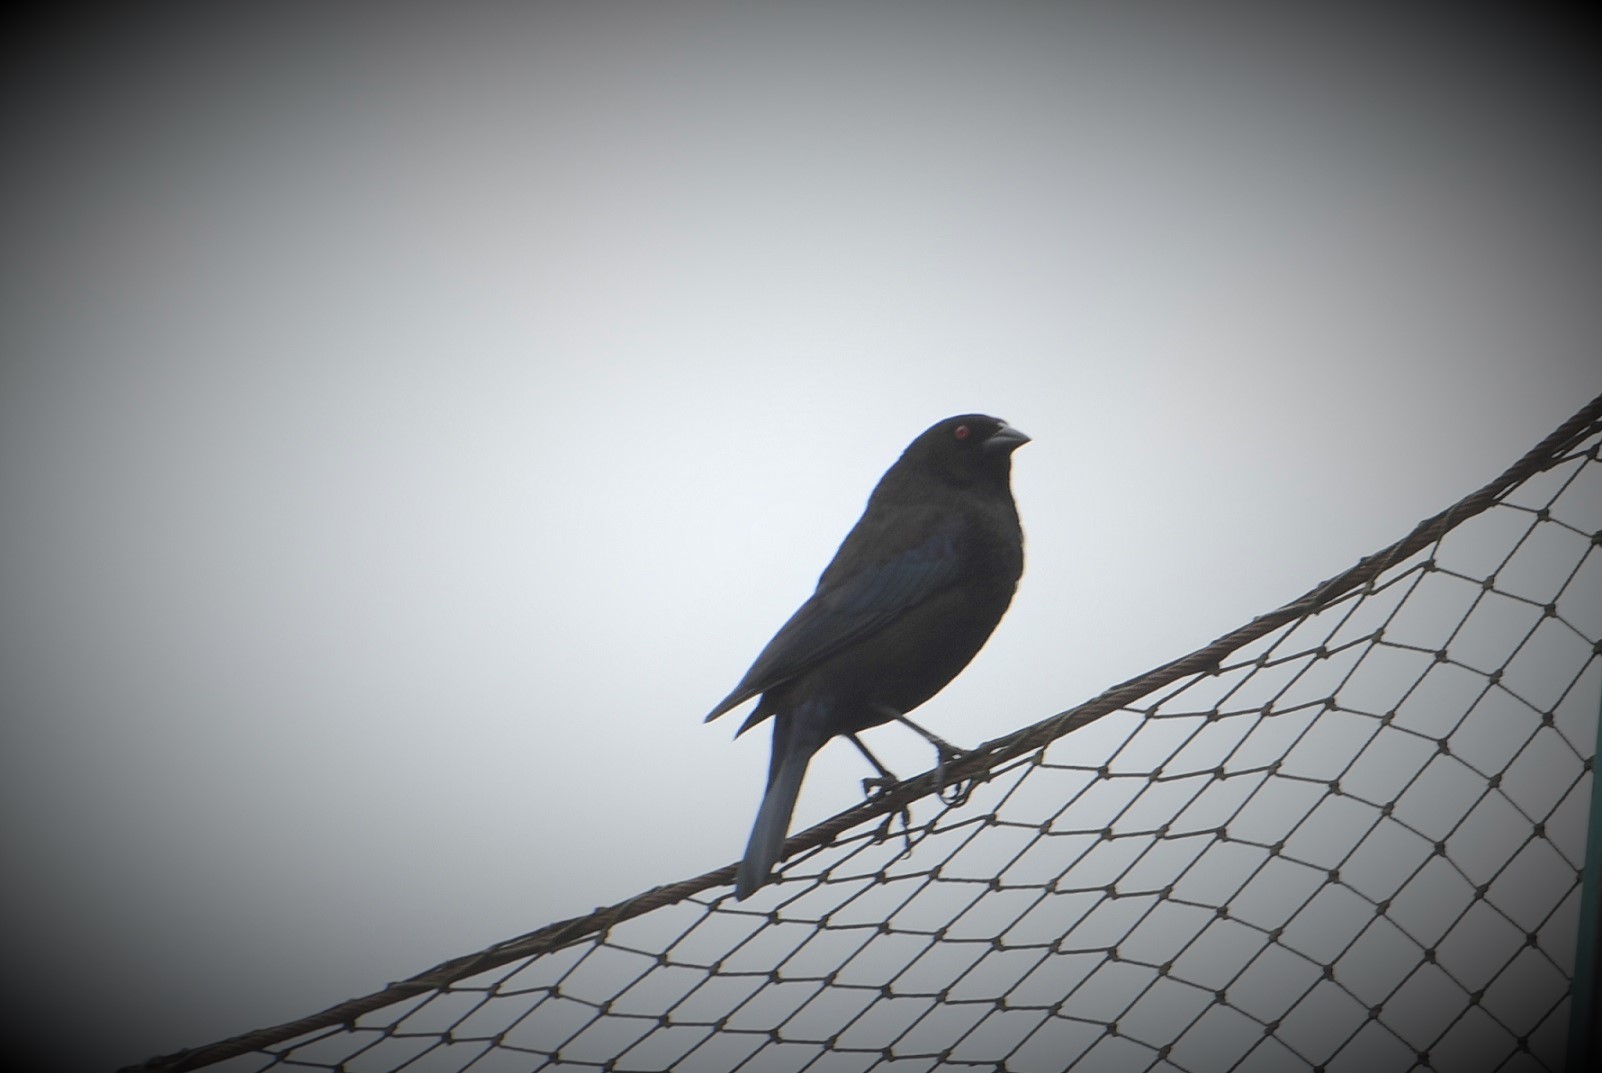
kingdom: Animalia
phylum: Chordata
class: Aves
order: Passeriformes
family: Icteridae
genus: Molothrus
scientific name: Molothrus aeneus
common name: Bronzed cowbird
